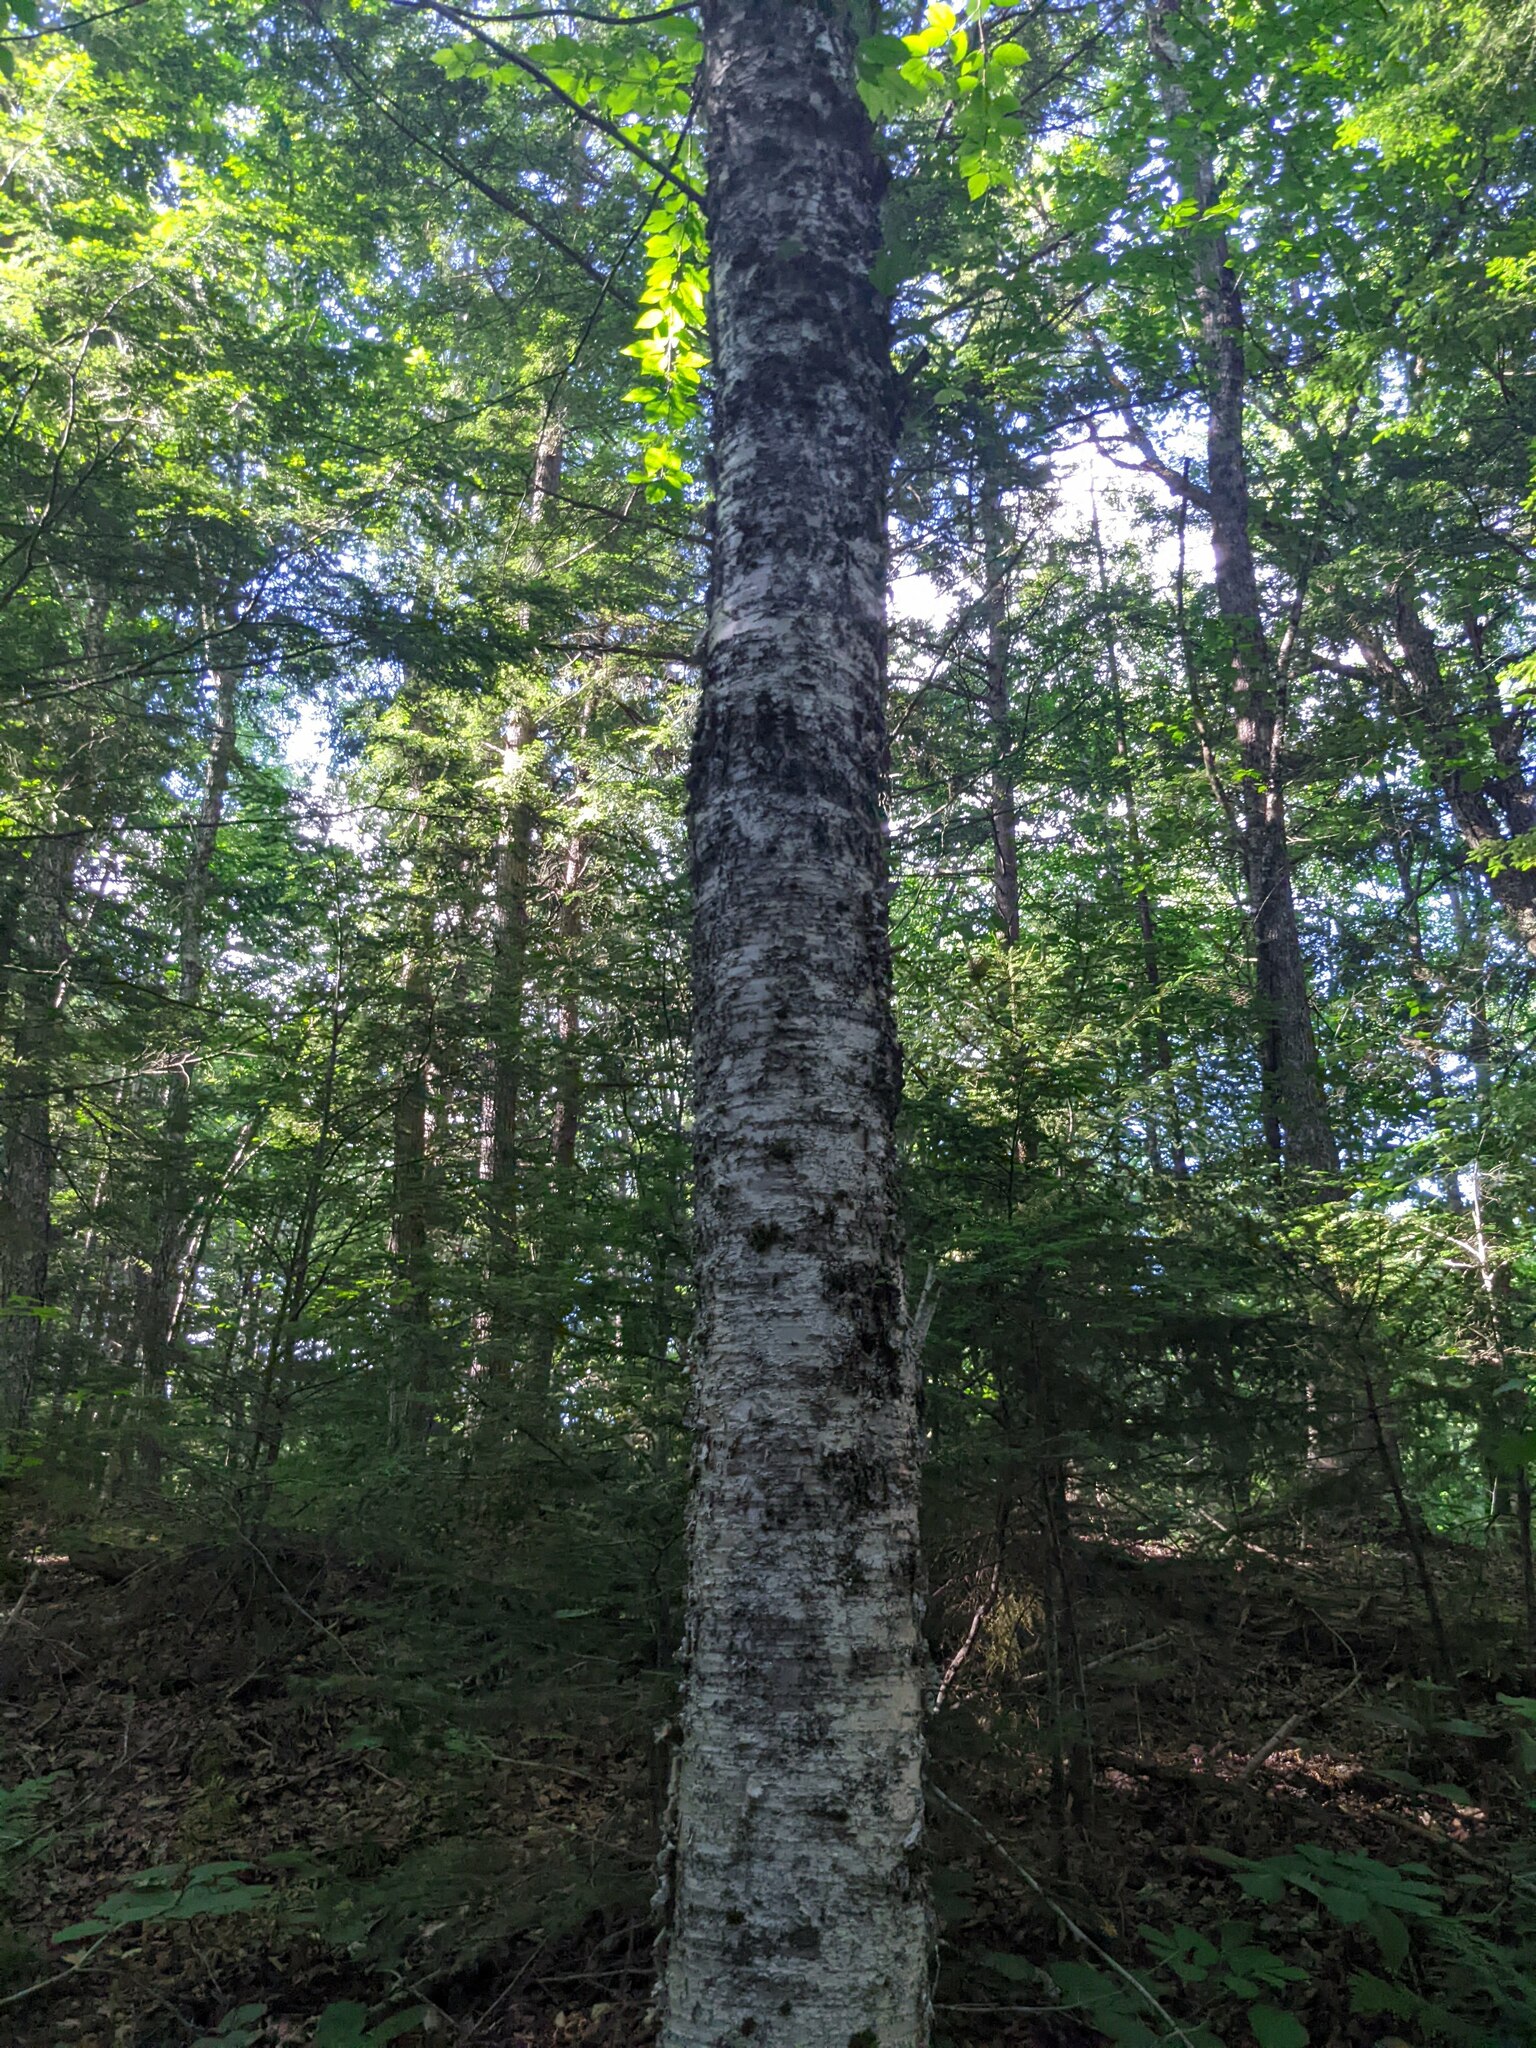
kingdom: Plantae
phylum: Tracheophyta
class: Magnoliopsida
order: Fagales
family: Betulaceae
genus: Betula
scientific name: Betula alleghaniensis
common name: Yellow birch
